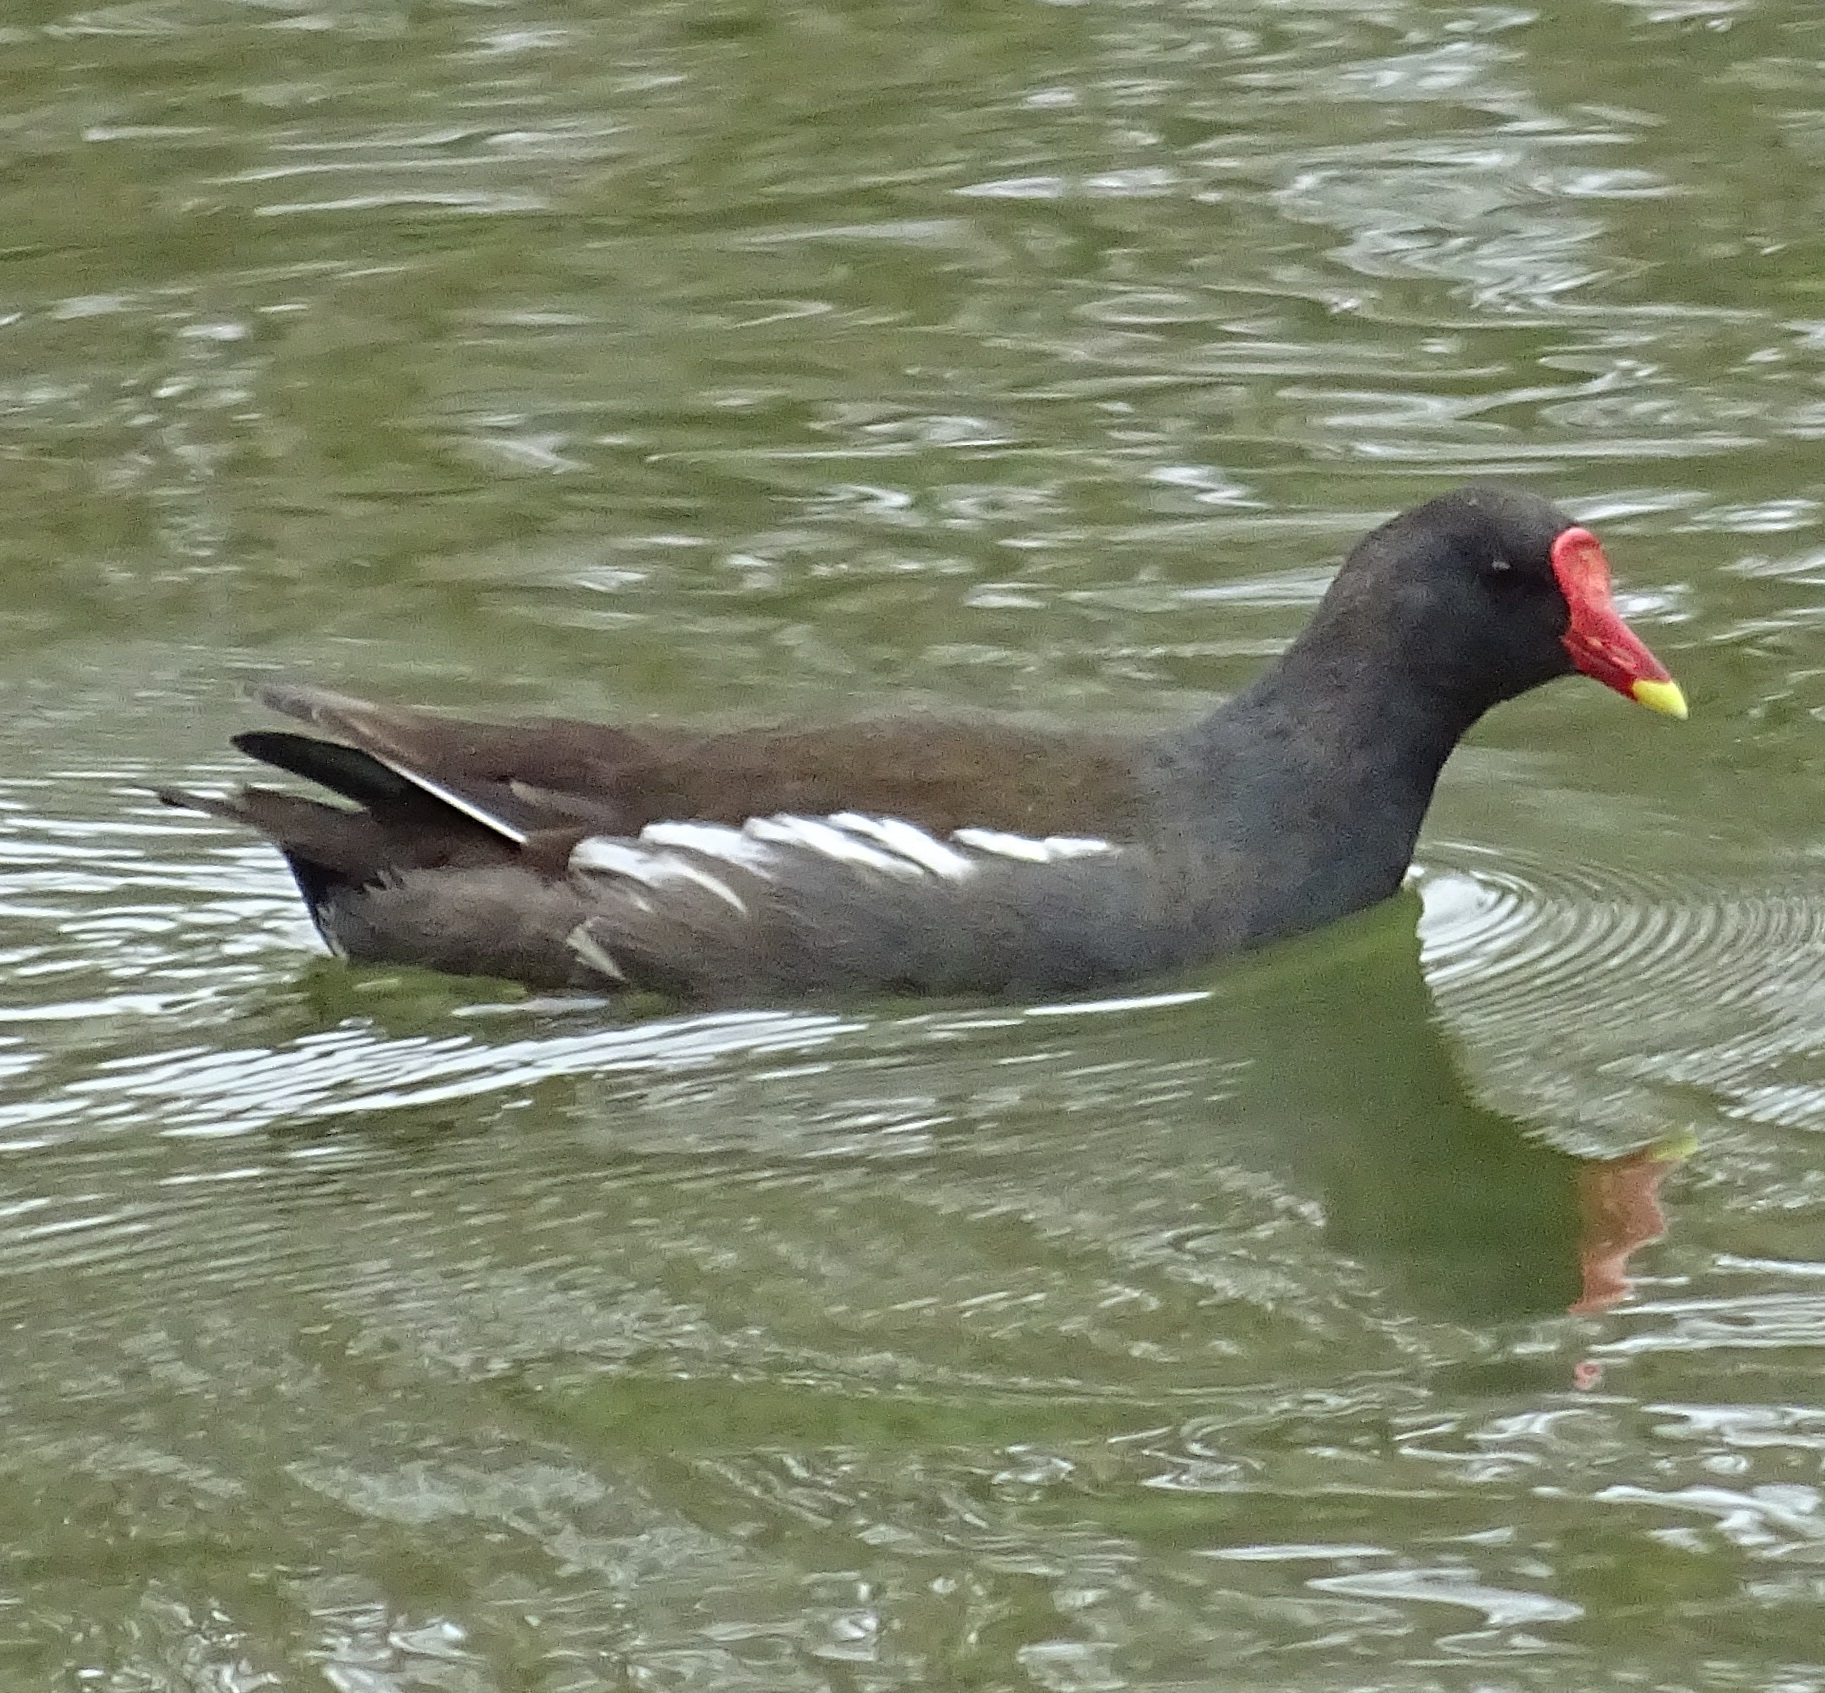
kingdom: Animalia
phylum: Chordata
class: Aves
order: Gruiformes
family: Rallidae
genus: Gallinula
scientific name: Gallinula chloropus
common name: Common moorhen
